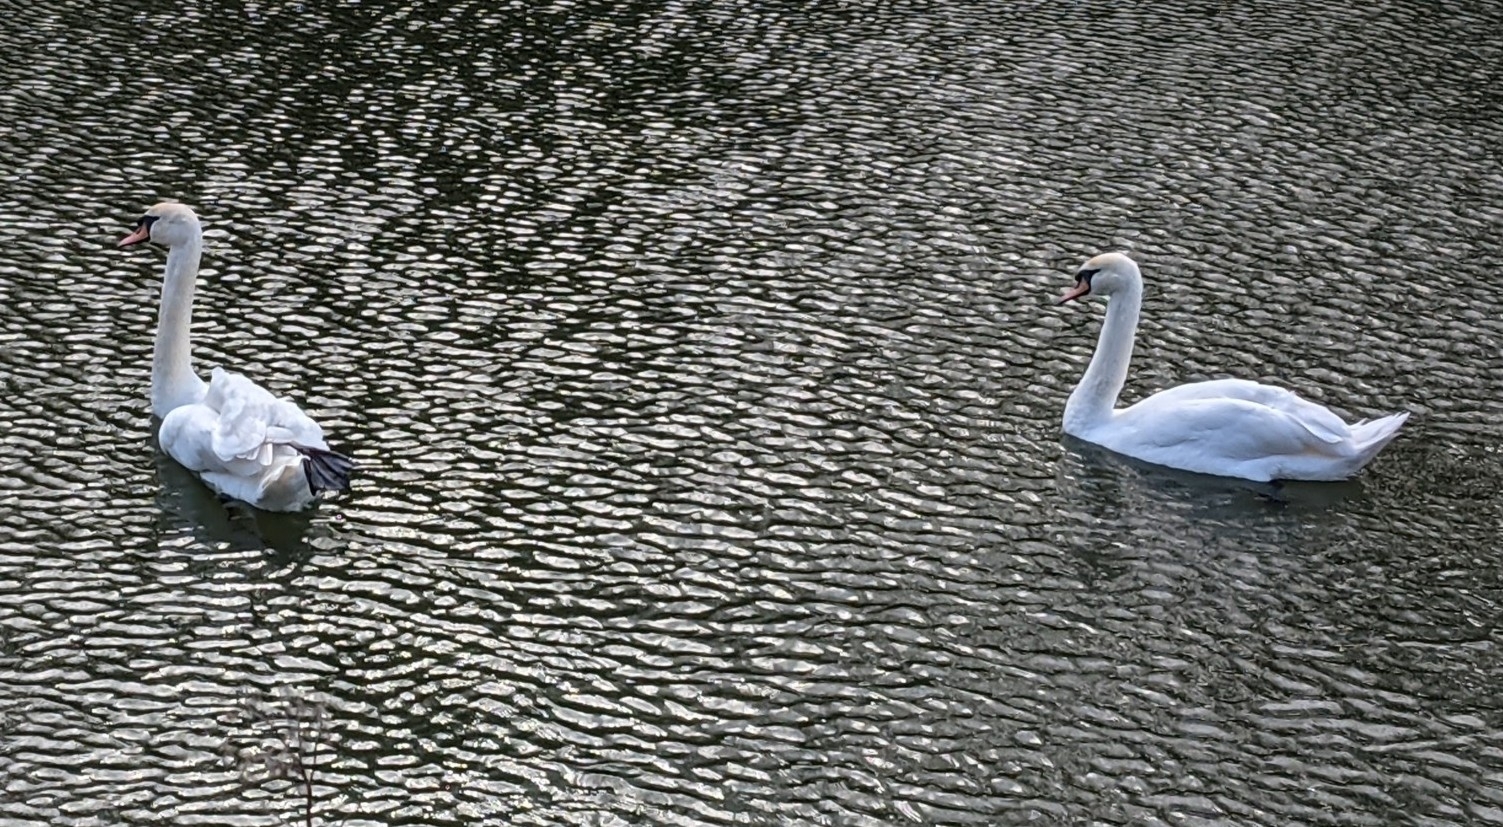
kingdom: Animalia
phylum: Chordata
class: Aves
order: Anseriformes
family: Anatidae
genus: Cygnus
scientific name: Cygnus olor
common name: Mute swan
